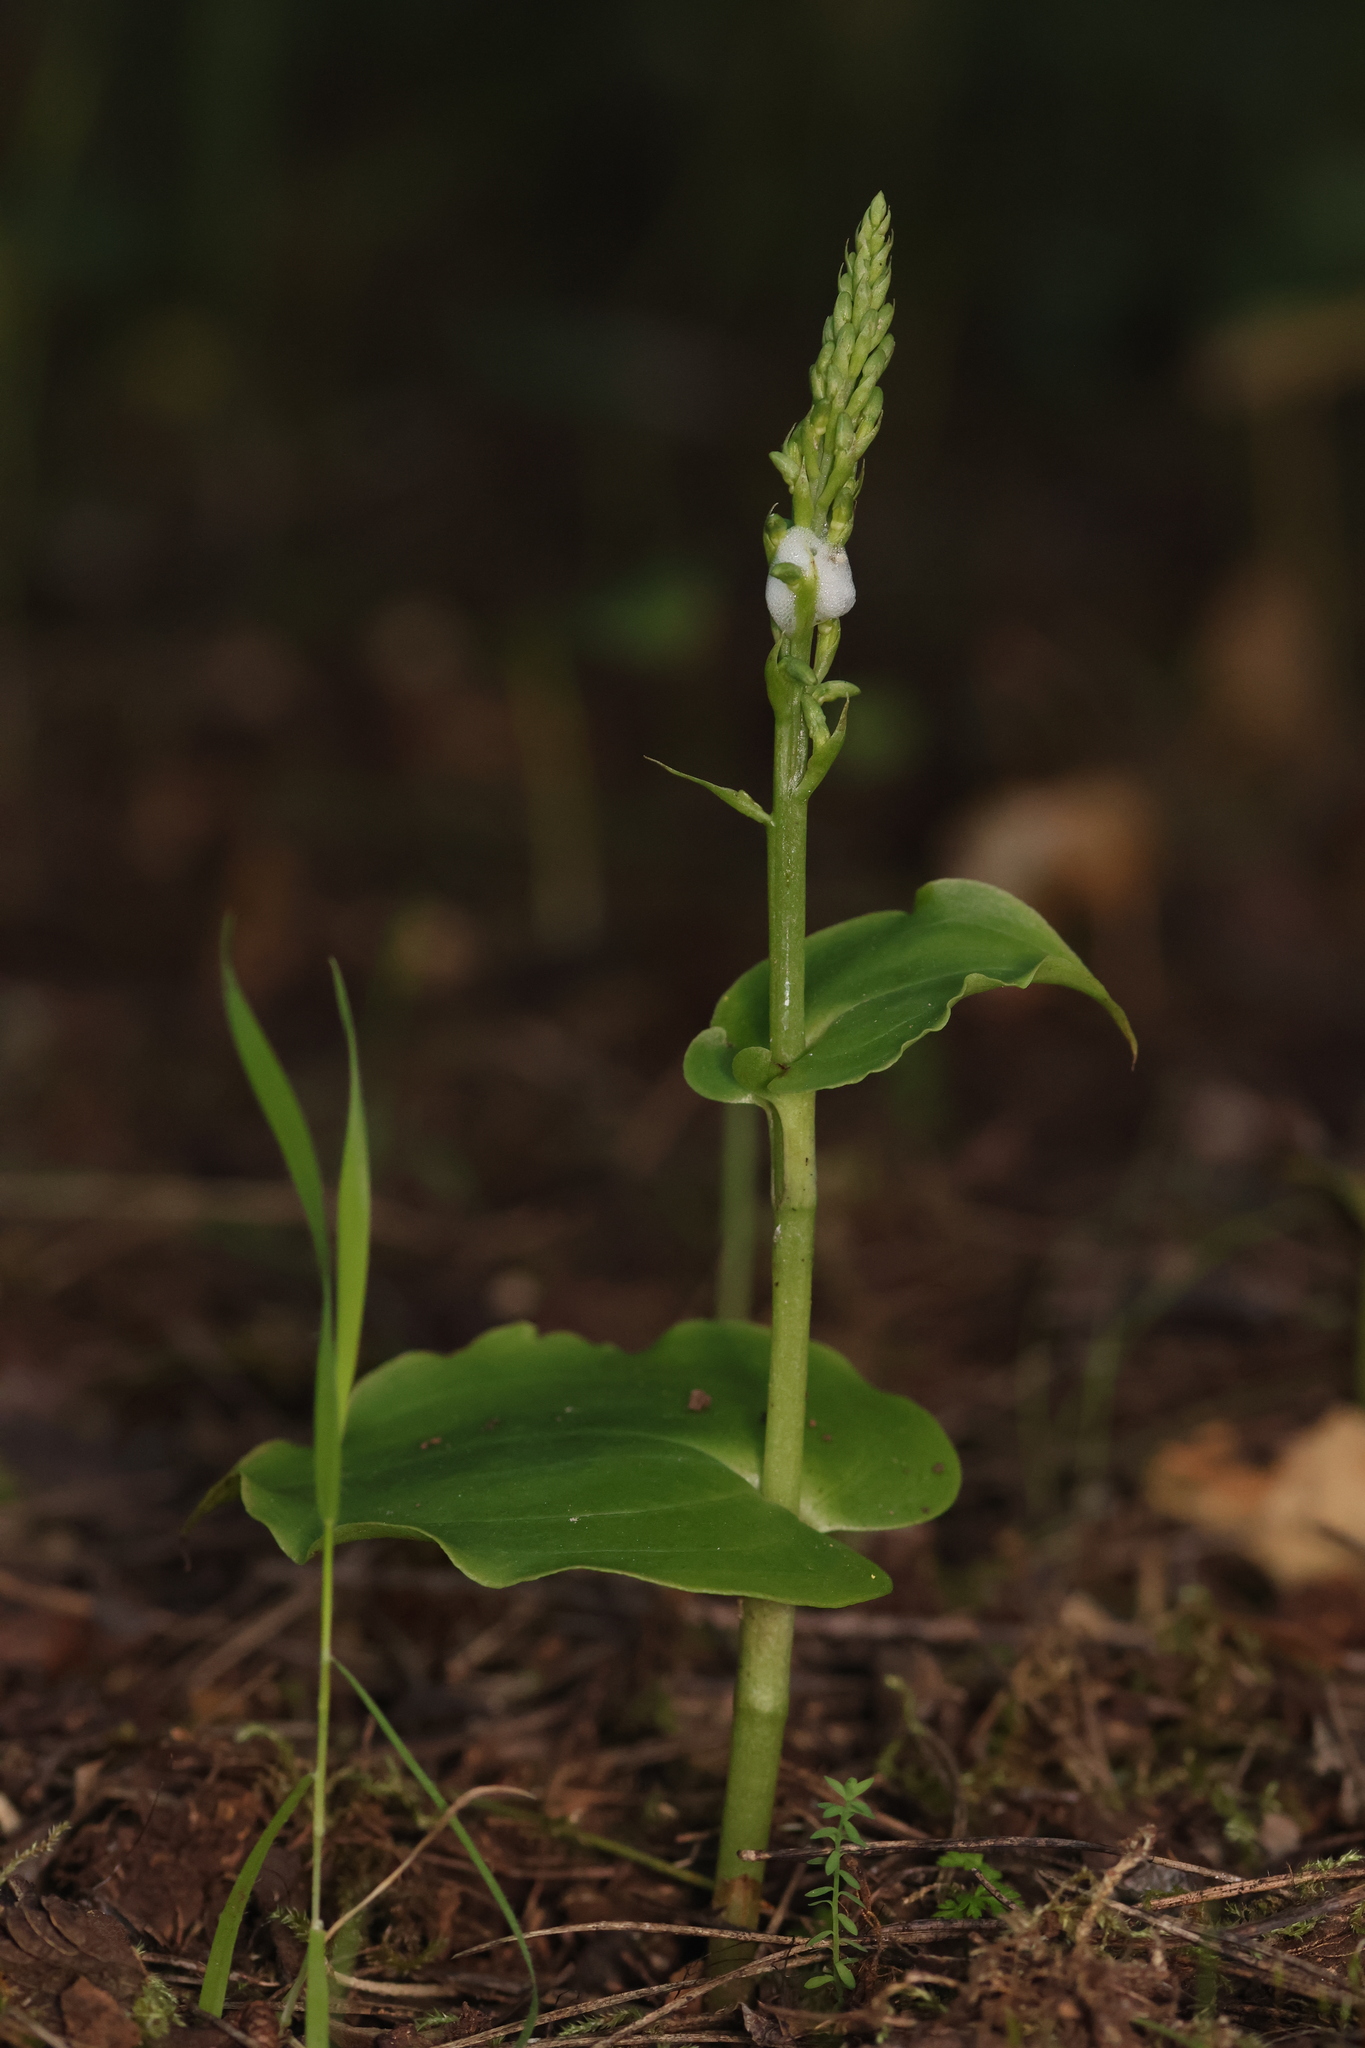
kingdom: Plantae
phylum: Tracheophyta
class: Liliopsida
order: Asparagales
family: Orchidaceae
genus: Gennaria
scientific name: Gennaria diphylla
